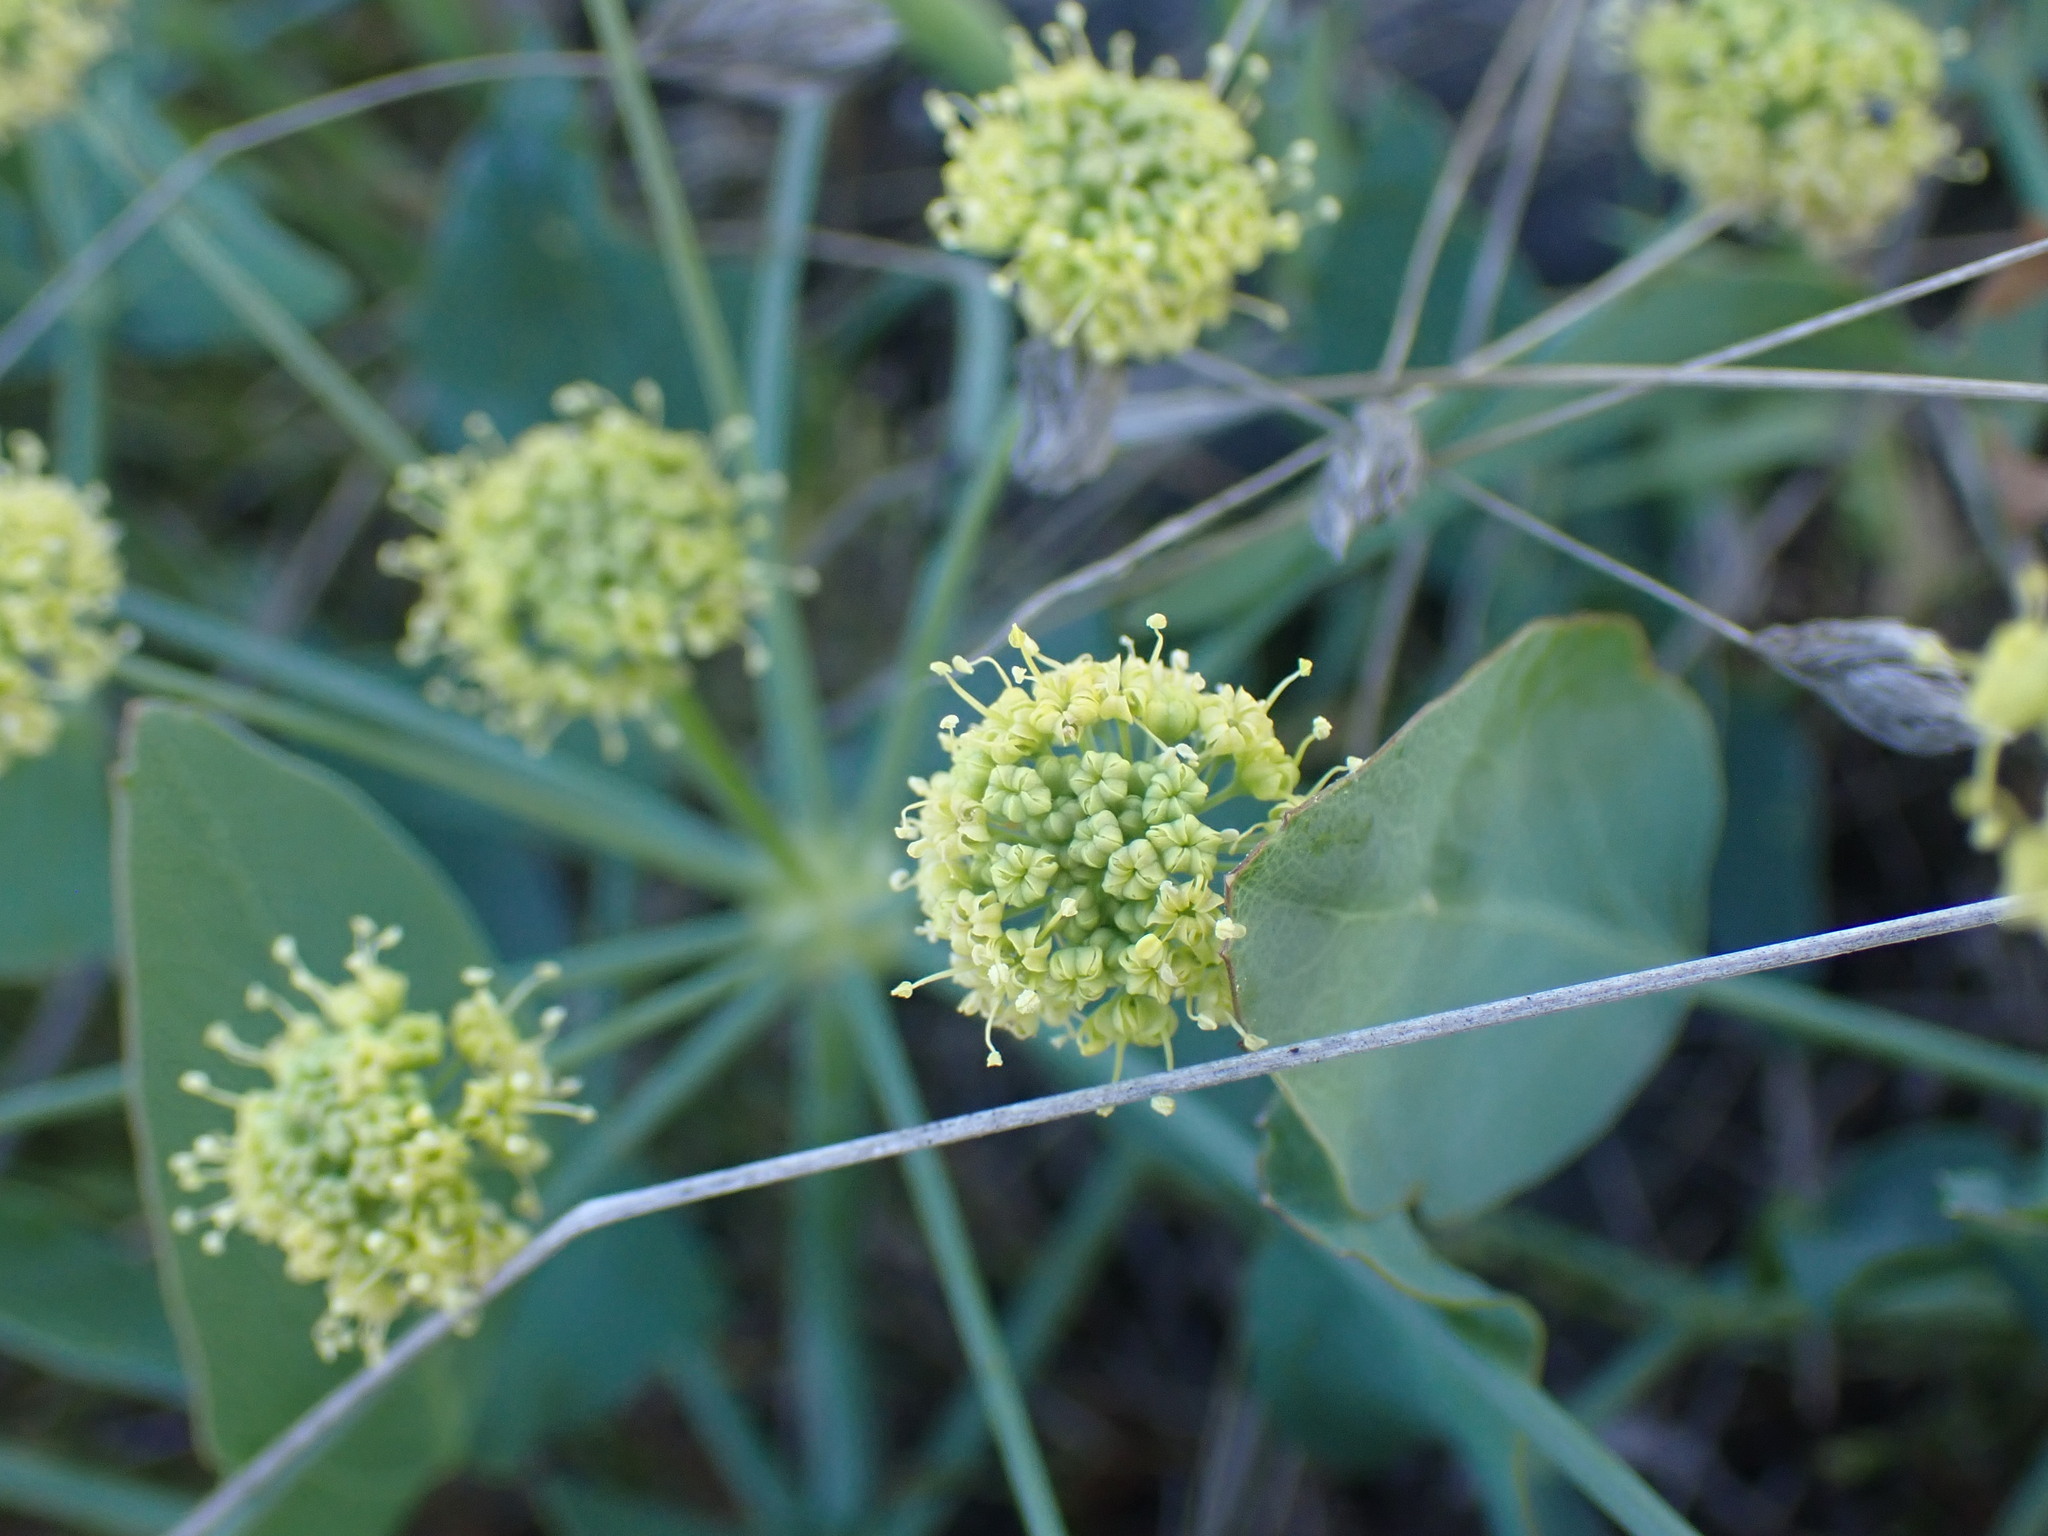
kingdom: Plantae
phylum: Tracheophyta
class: Magnoliopsida
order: Apiales
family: Apiaceae
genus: Lomatium
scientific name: Lomatium nudicaule
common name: Pestle lomatium
